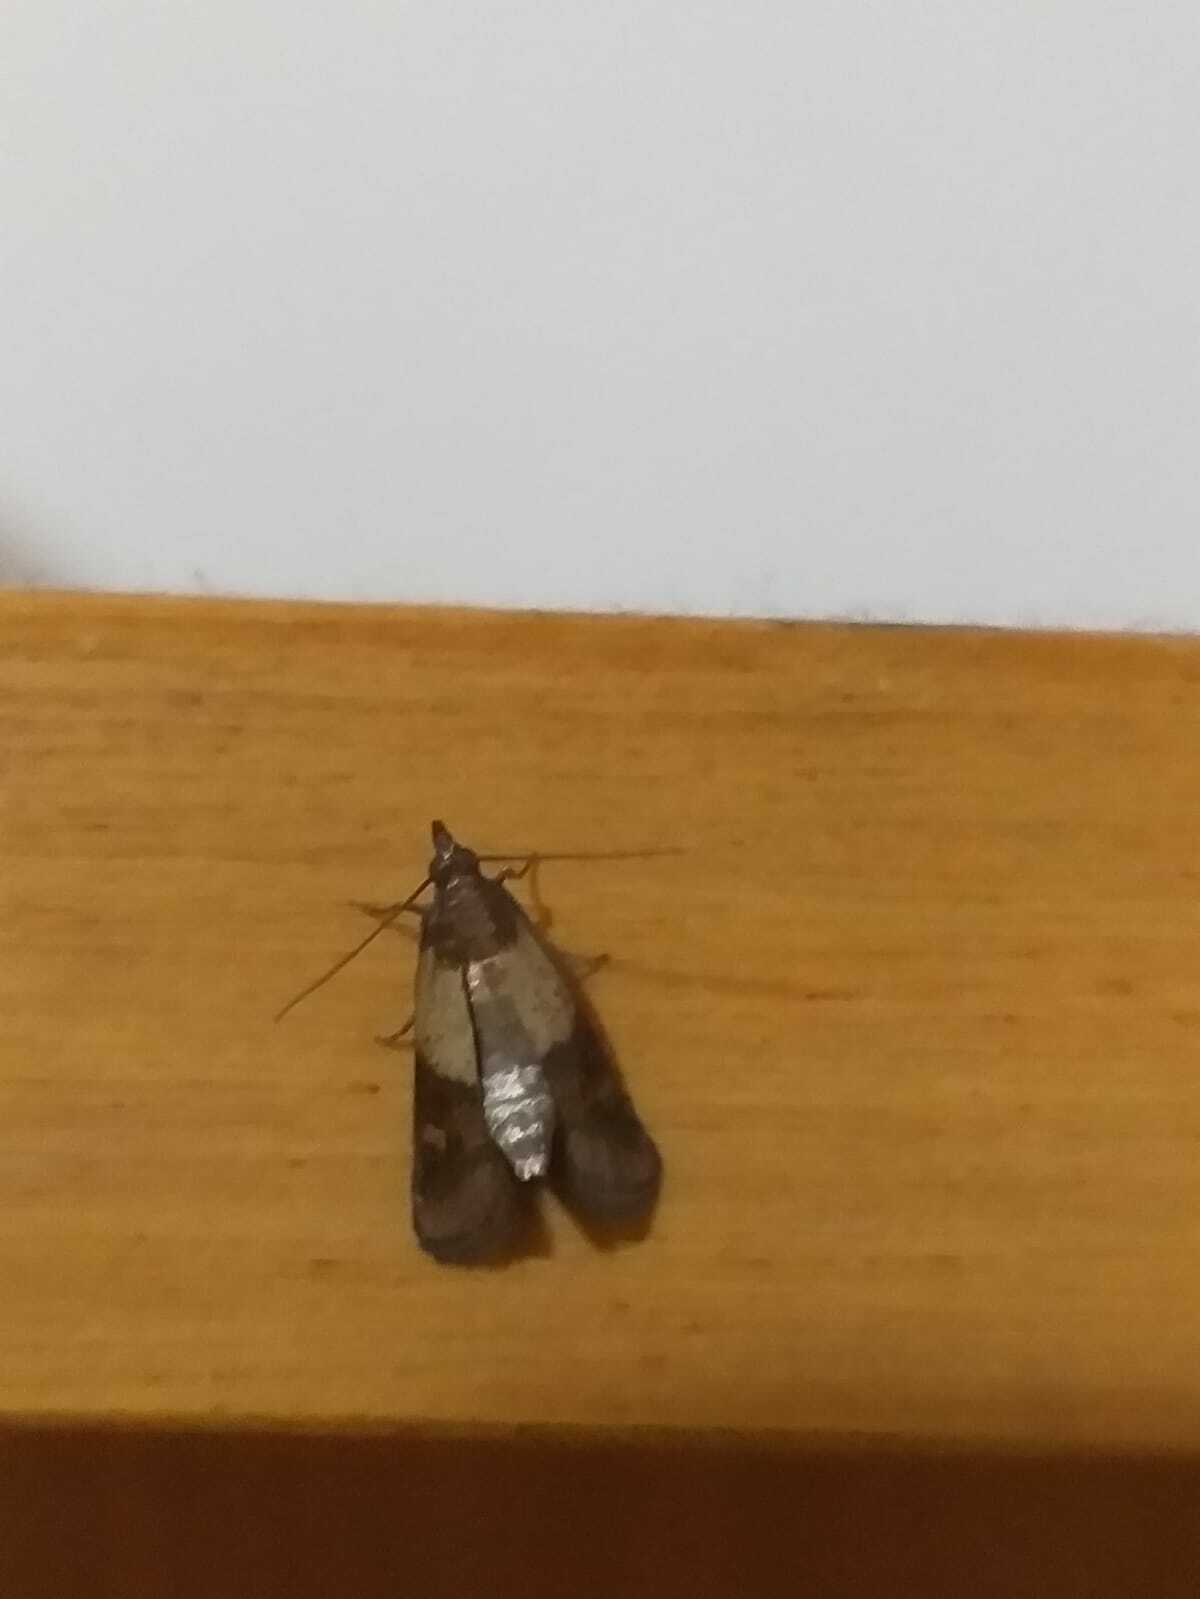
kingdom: Animalia
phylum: Arthropoda
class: Insecta
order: Lepidoptera
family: Pyralidae
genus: Plodia
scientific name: Plodia interpunctella
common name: Indian meal moth
